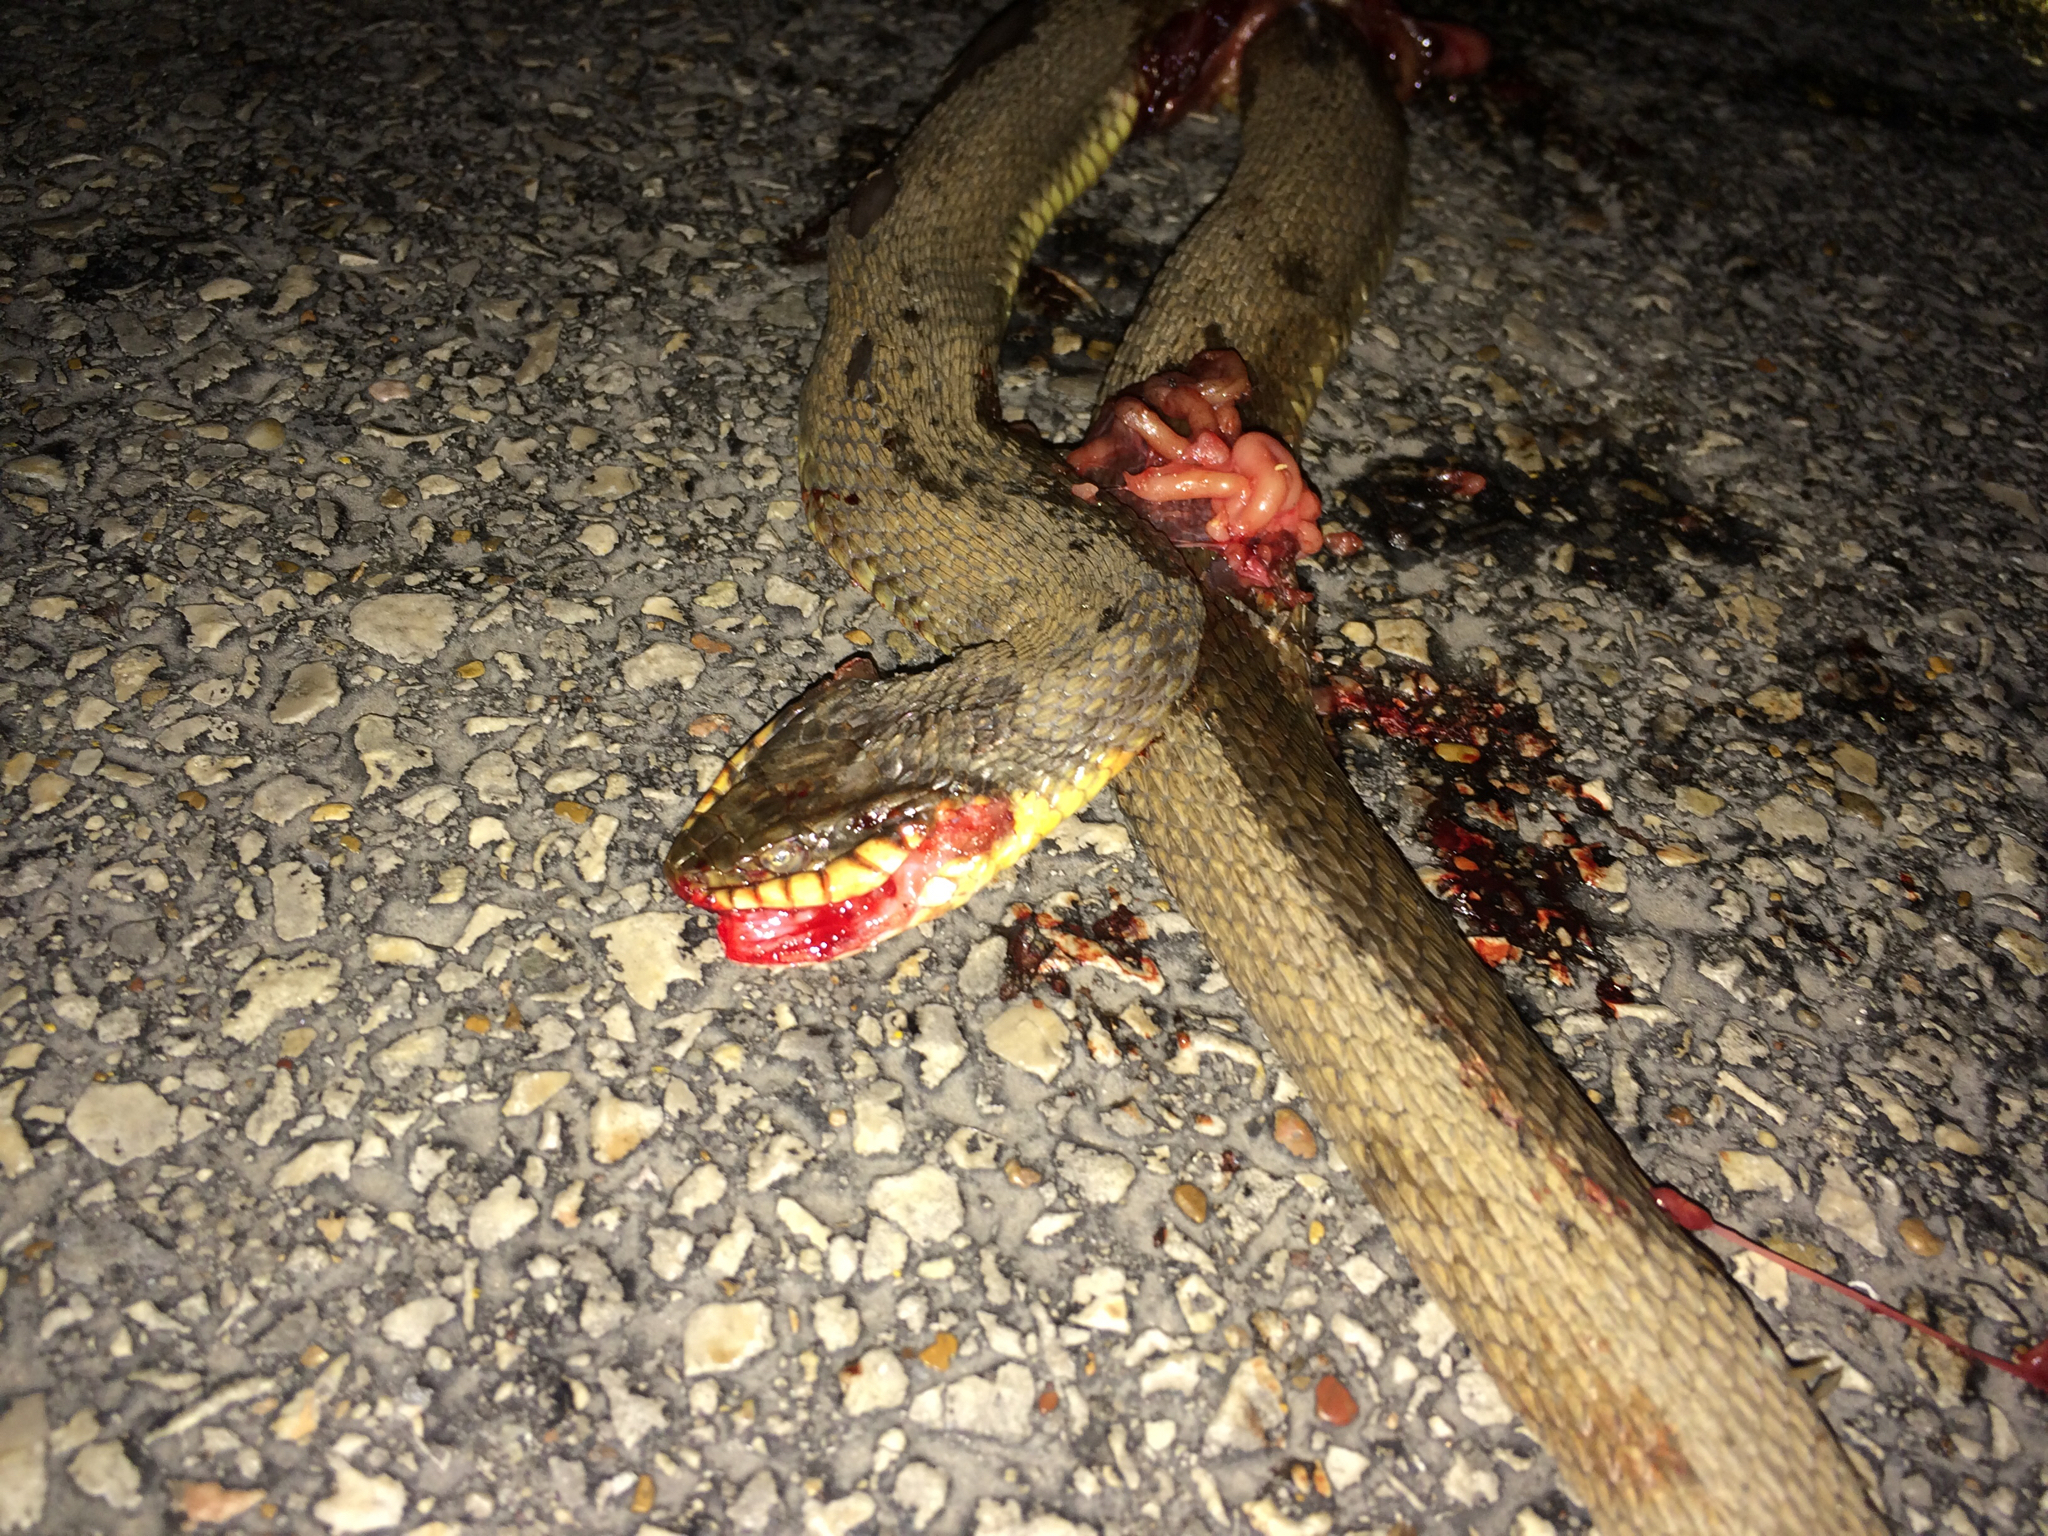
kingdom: Animalia
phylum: Chordata
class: Squamata
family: Colubridae
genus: Nerodia
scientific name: Nerodia erythrogaster
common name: Plainbelly water snake
